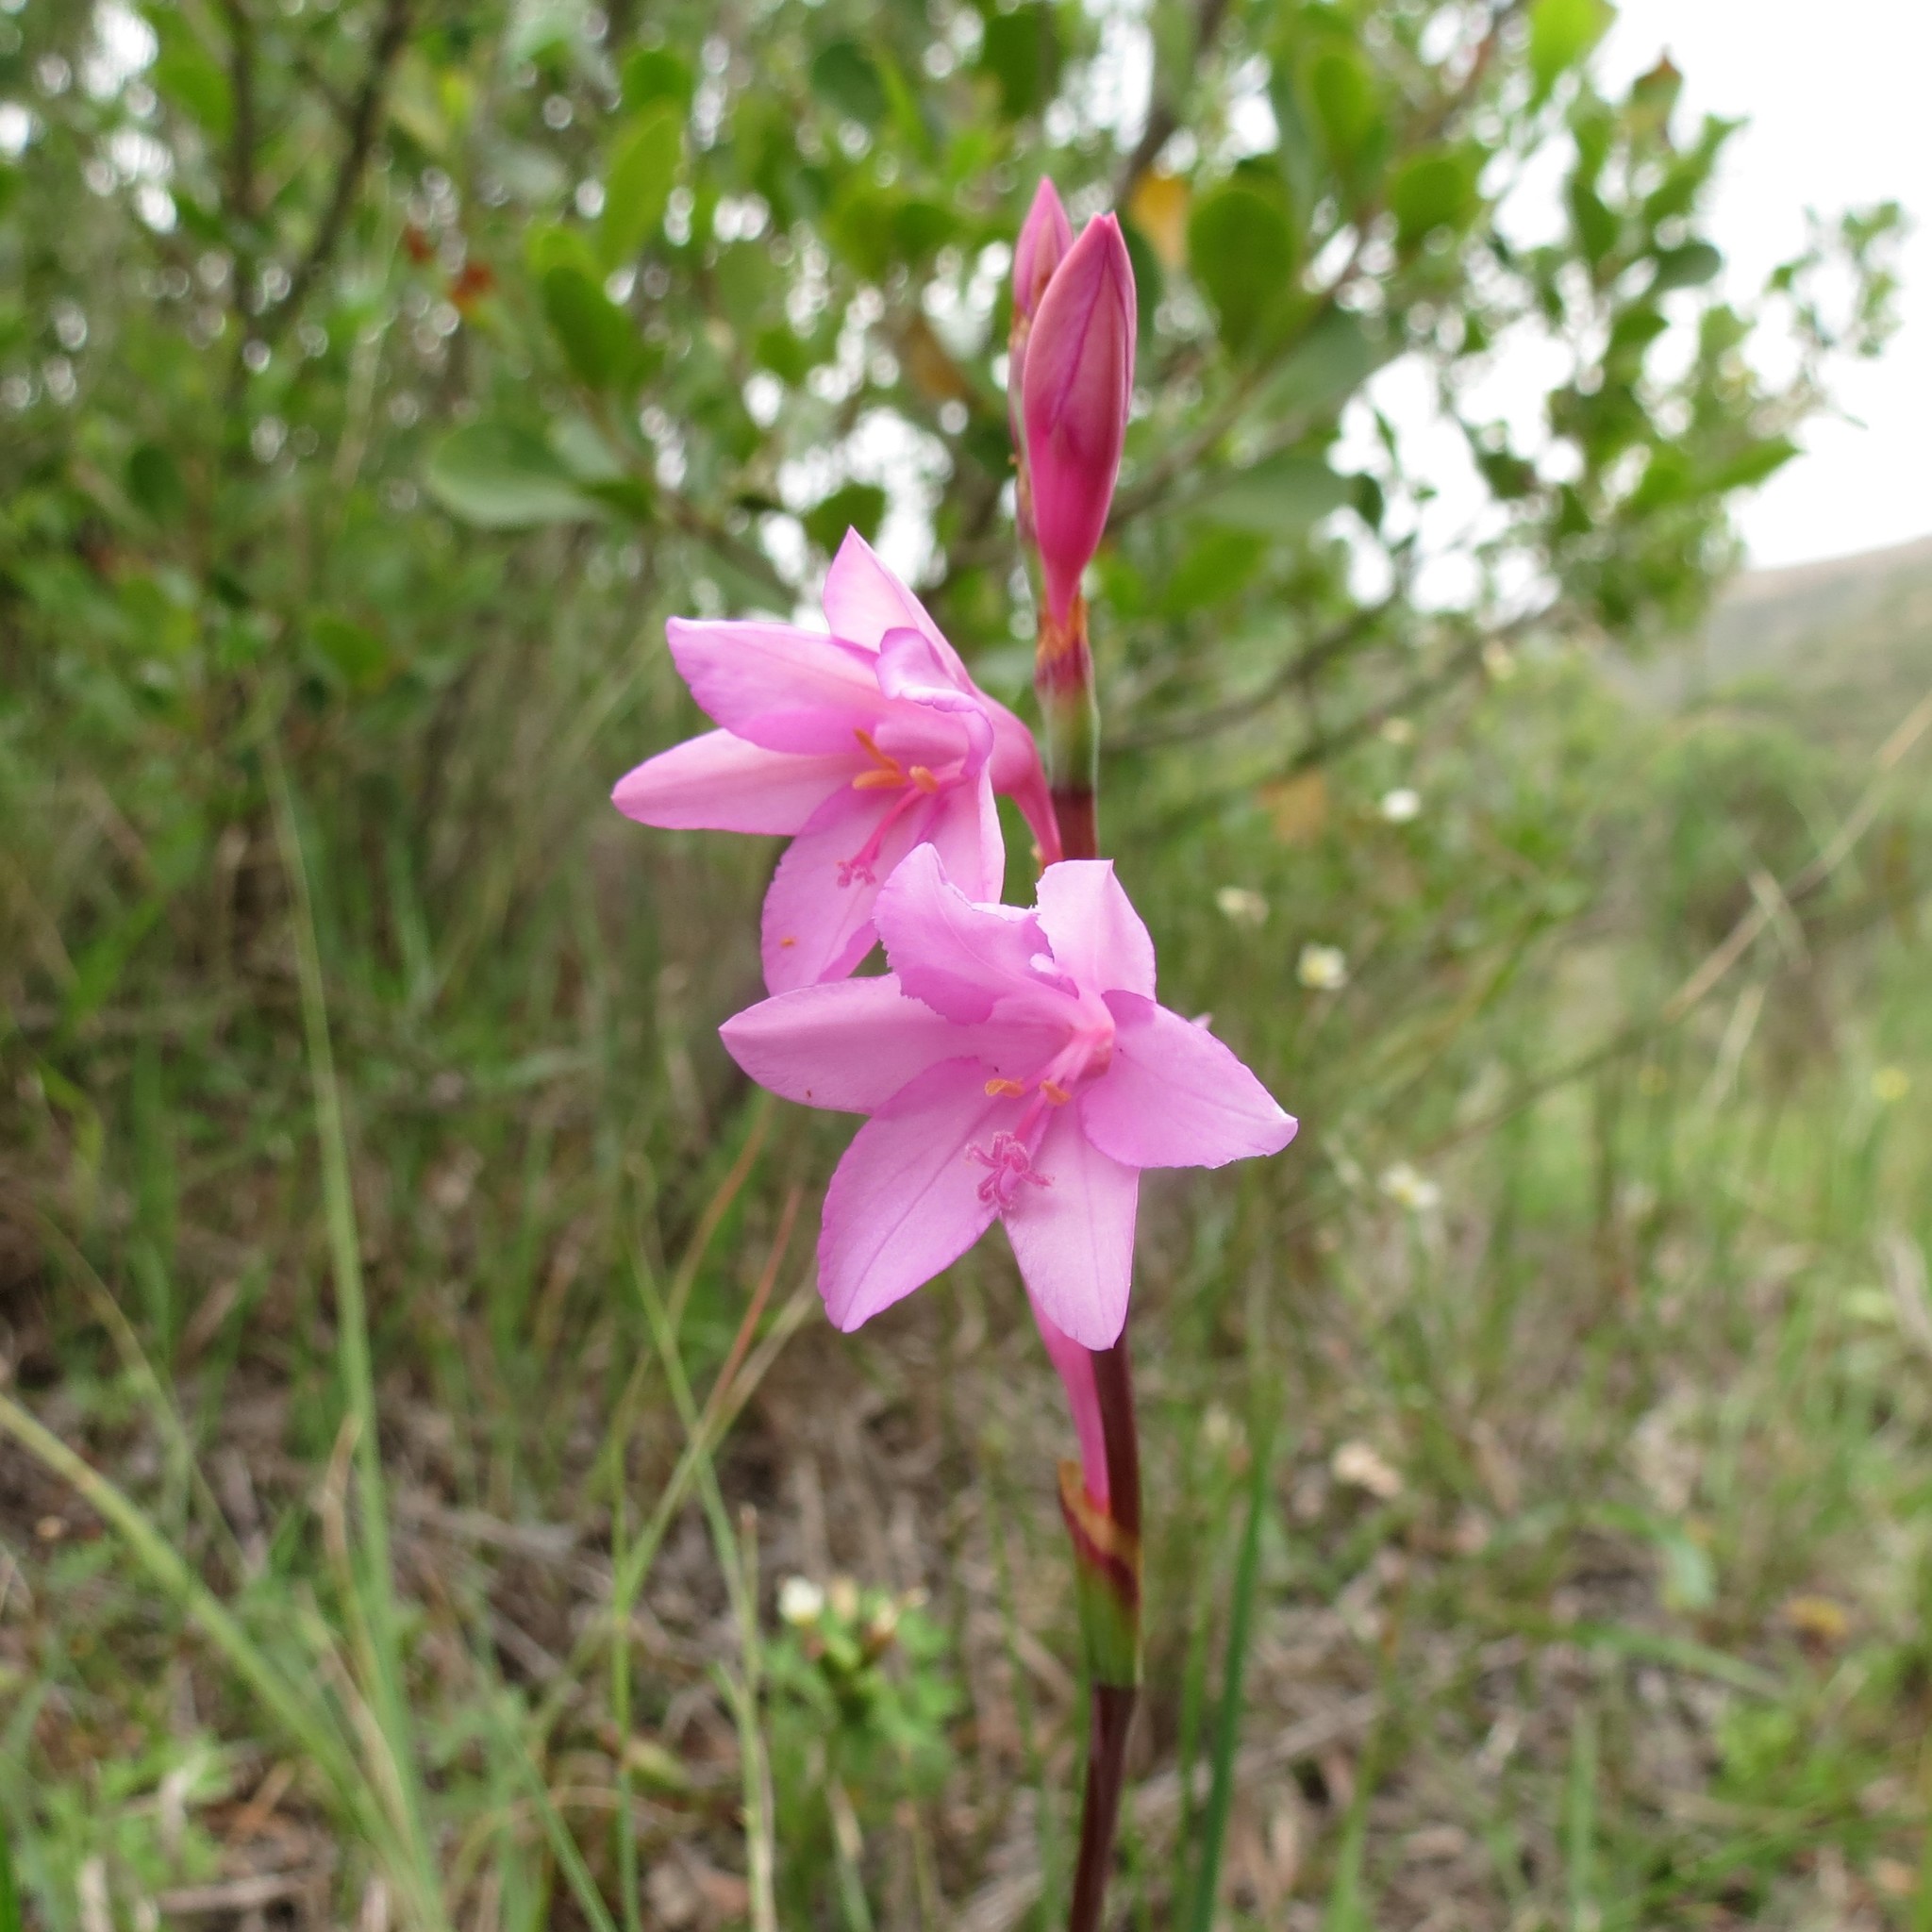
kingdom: Plantae
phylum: Tracheophyta
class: Liliopsida
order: Asparagales
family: Iridaceae
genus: Watsonia
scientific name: Watsonia laccata
